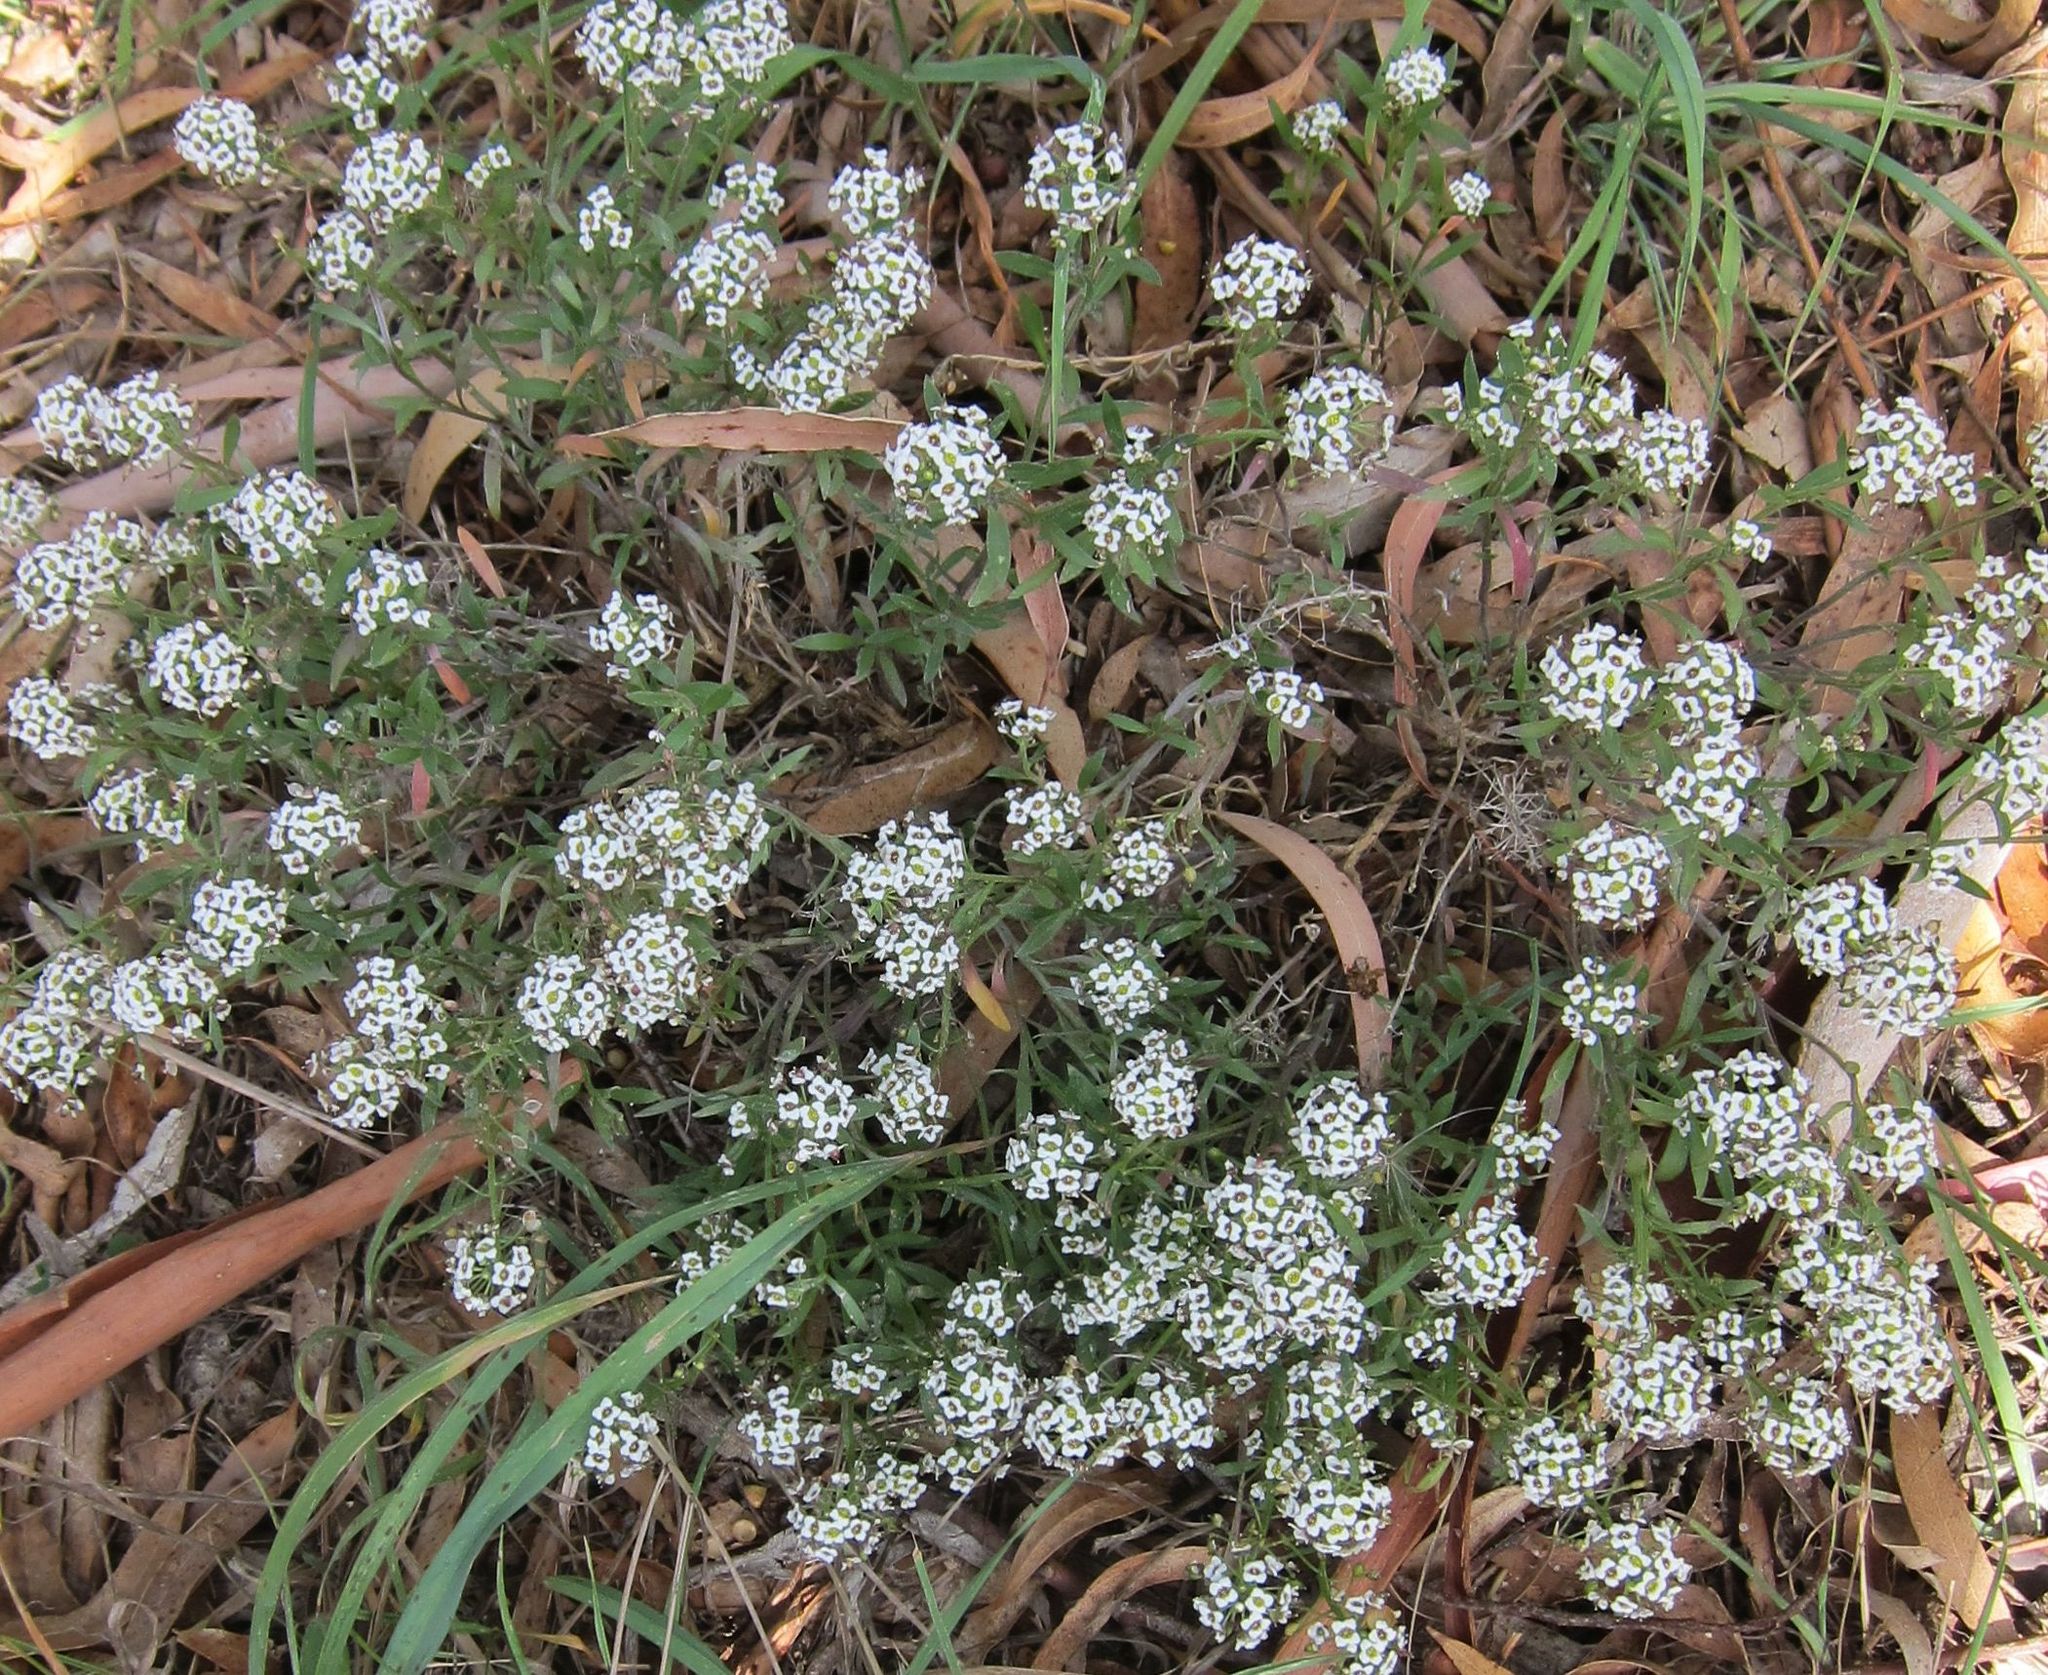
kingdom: Plantae
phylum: Tracheophyta
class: Magnoliopsida
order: Brassicales
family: Brassicaceae
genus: Lobularia
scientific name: Lobularia maritima
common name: Sweet alison
